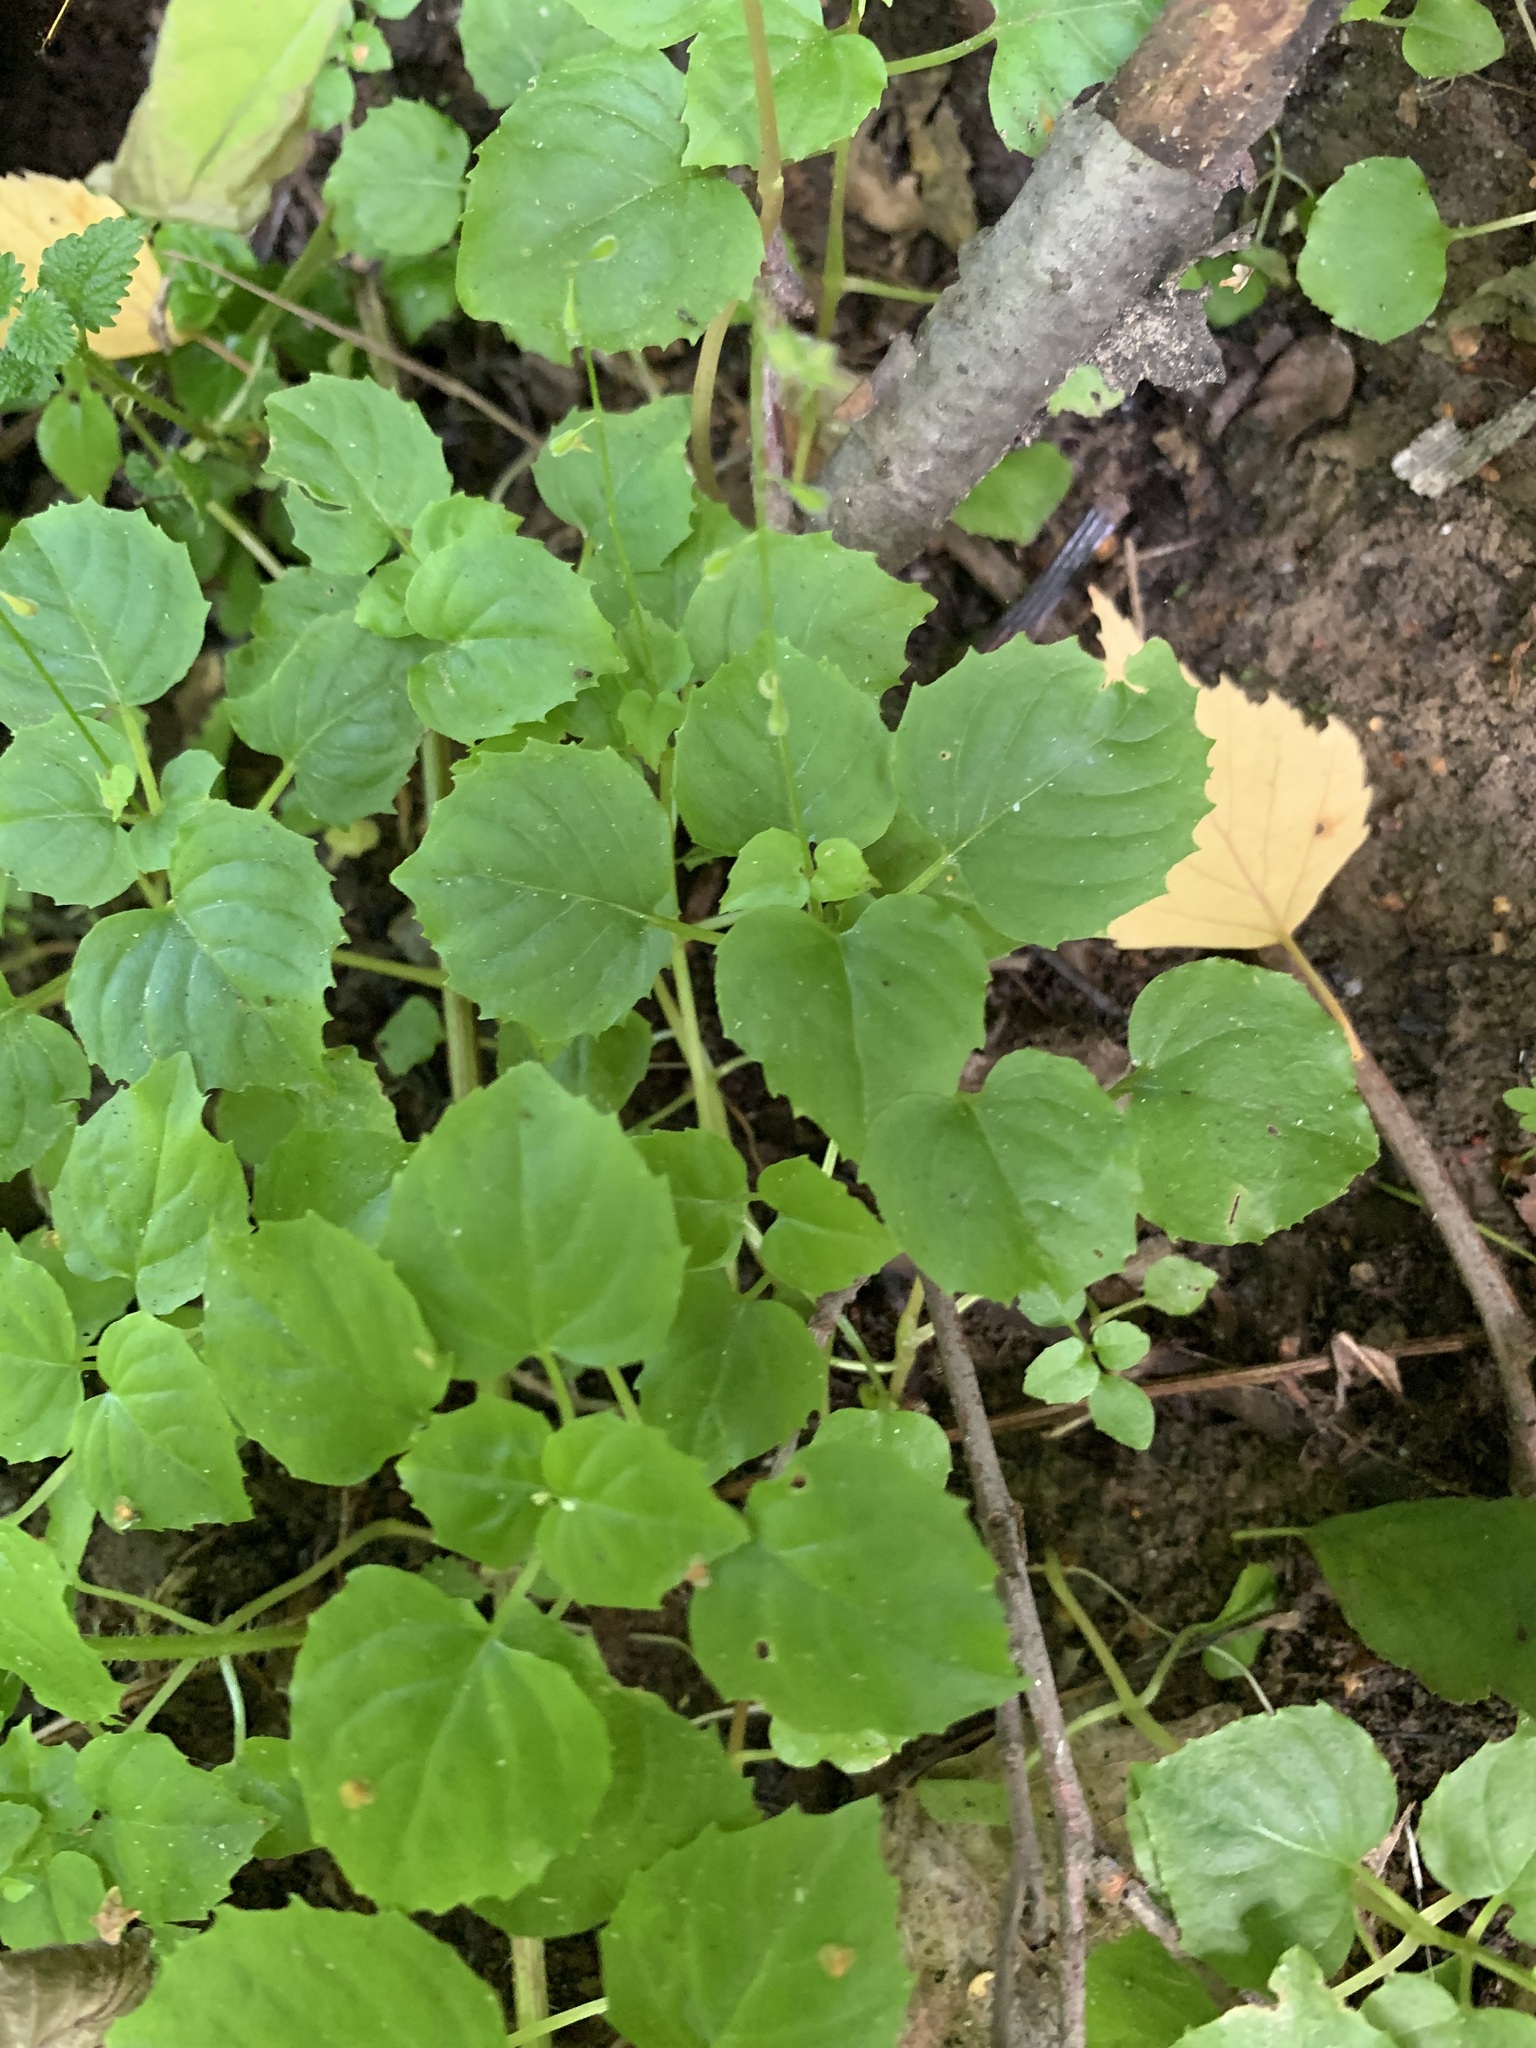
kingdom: Plantae
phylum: Tracheophyta
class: Magnoliopsida
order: Myrtales
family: Onagraceae
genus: Circaea
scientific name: Circaea alpina
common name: Alpine enchanter's-nightshade
